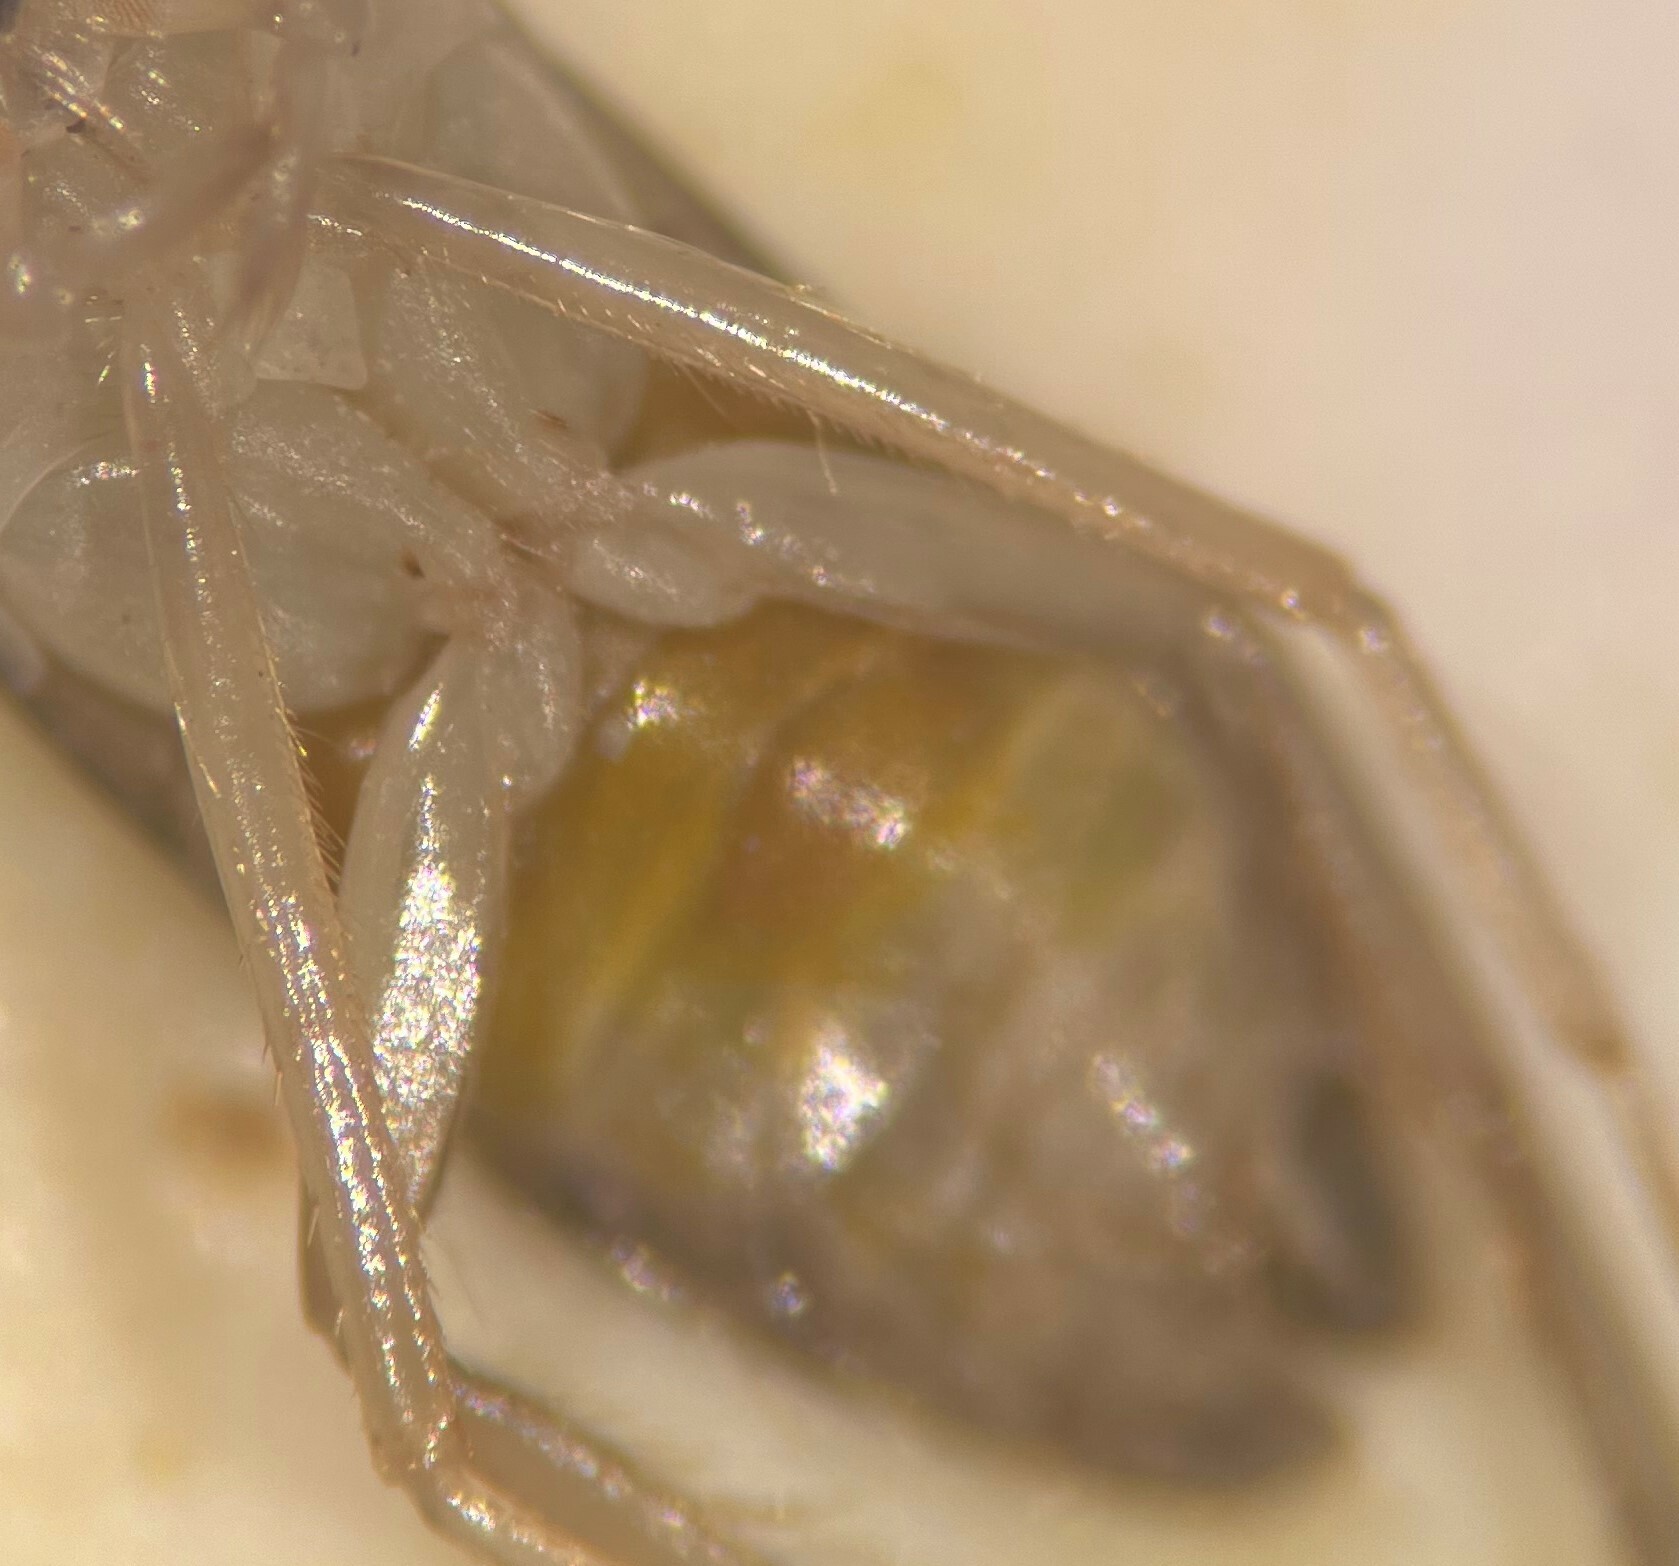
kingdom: Animalia
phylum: Arthropoda
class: Insecta
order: Hemiptera
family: Corixidae
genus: Palmacorixa
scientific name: Palmacorixa buenoi
